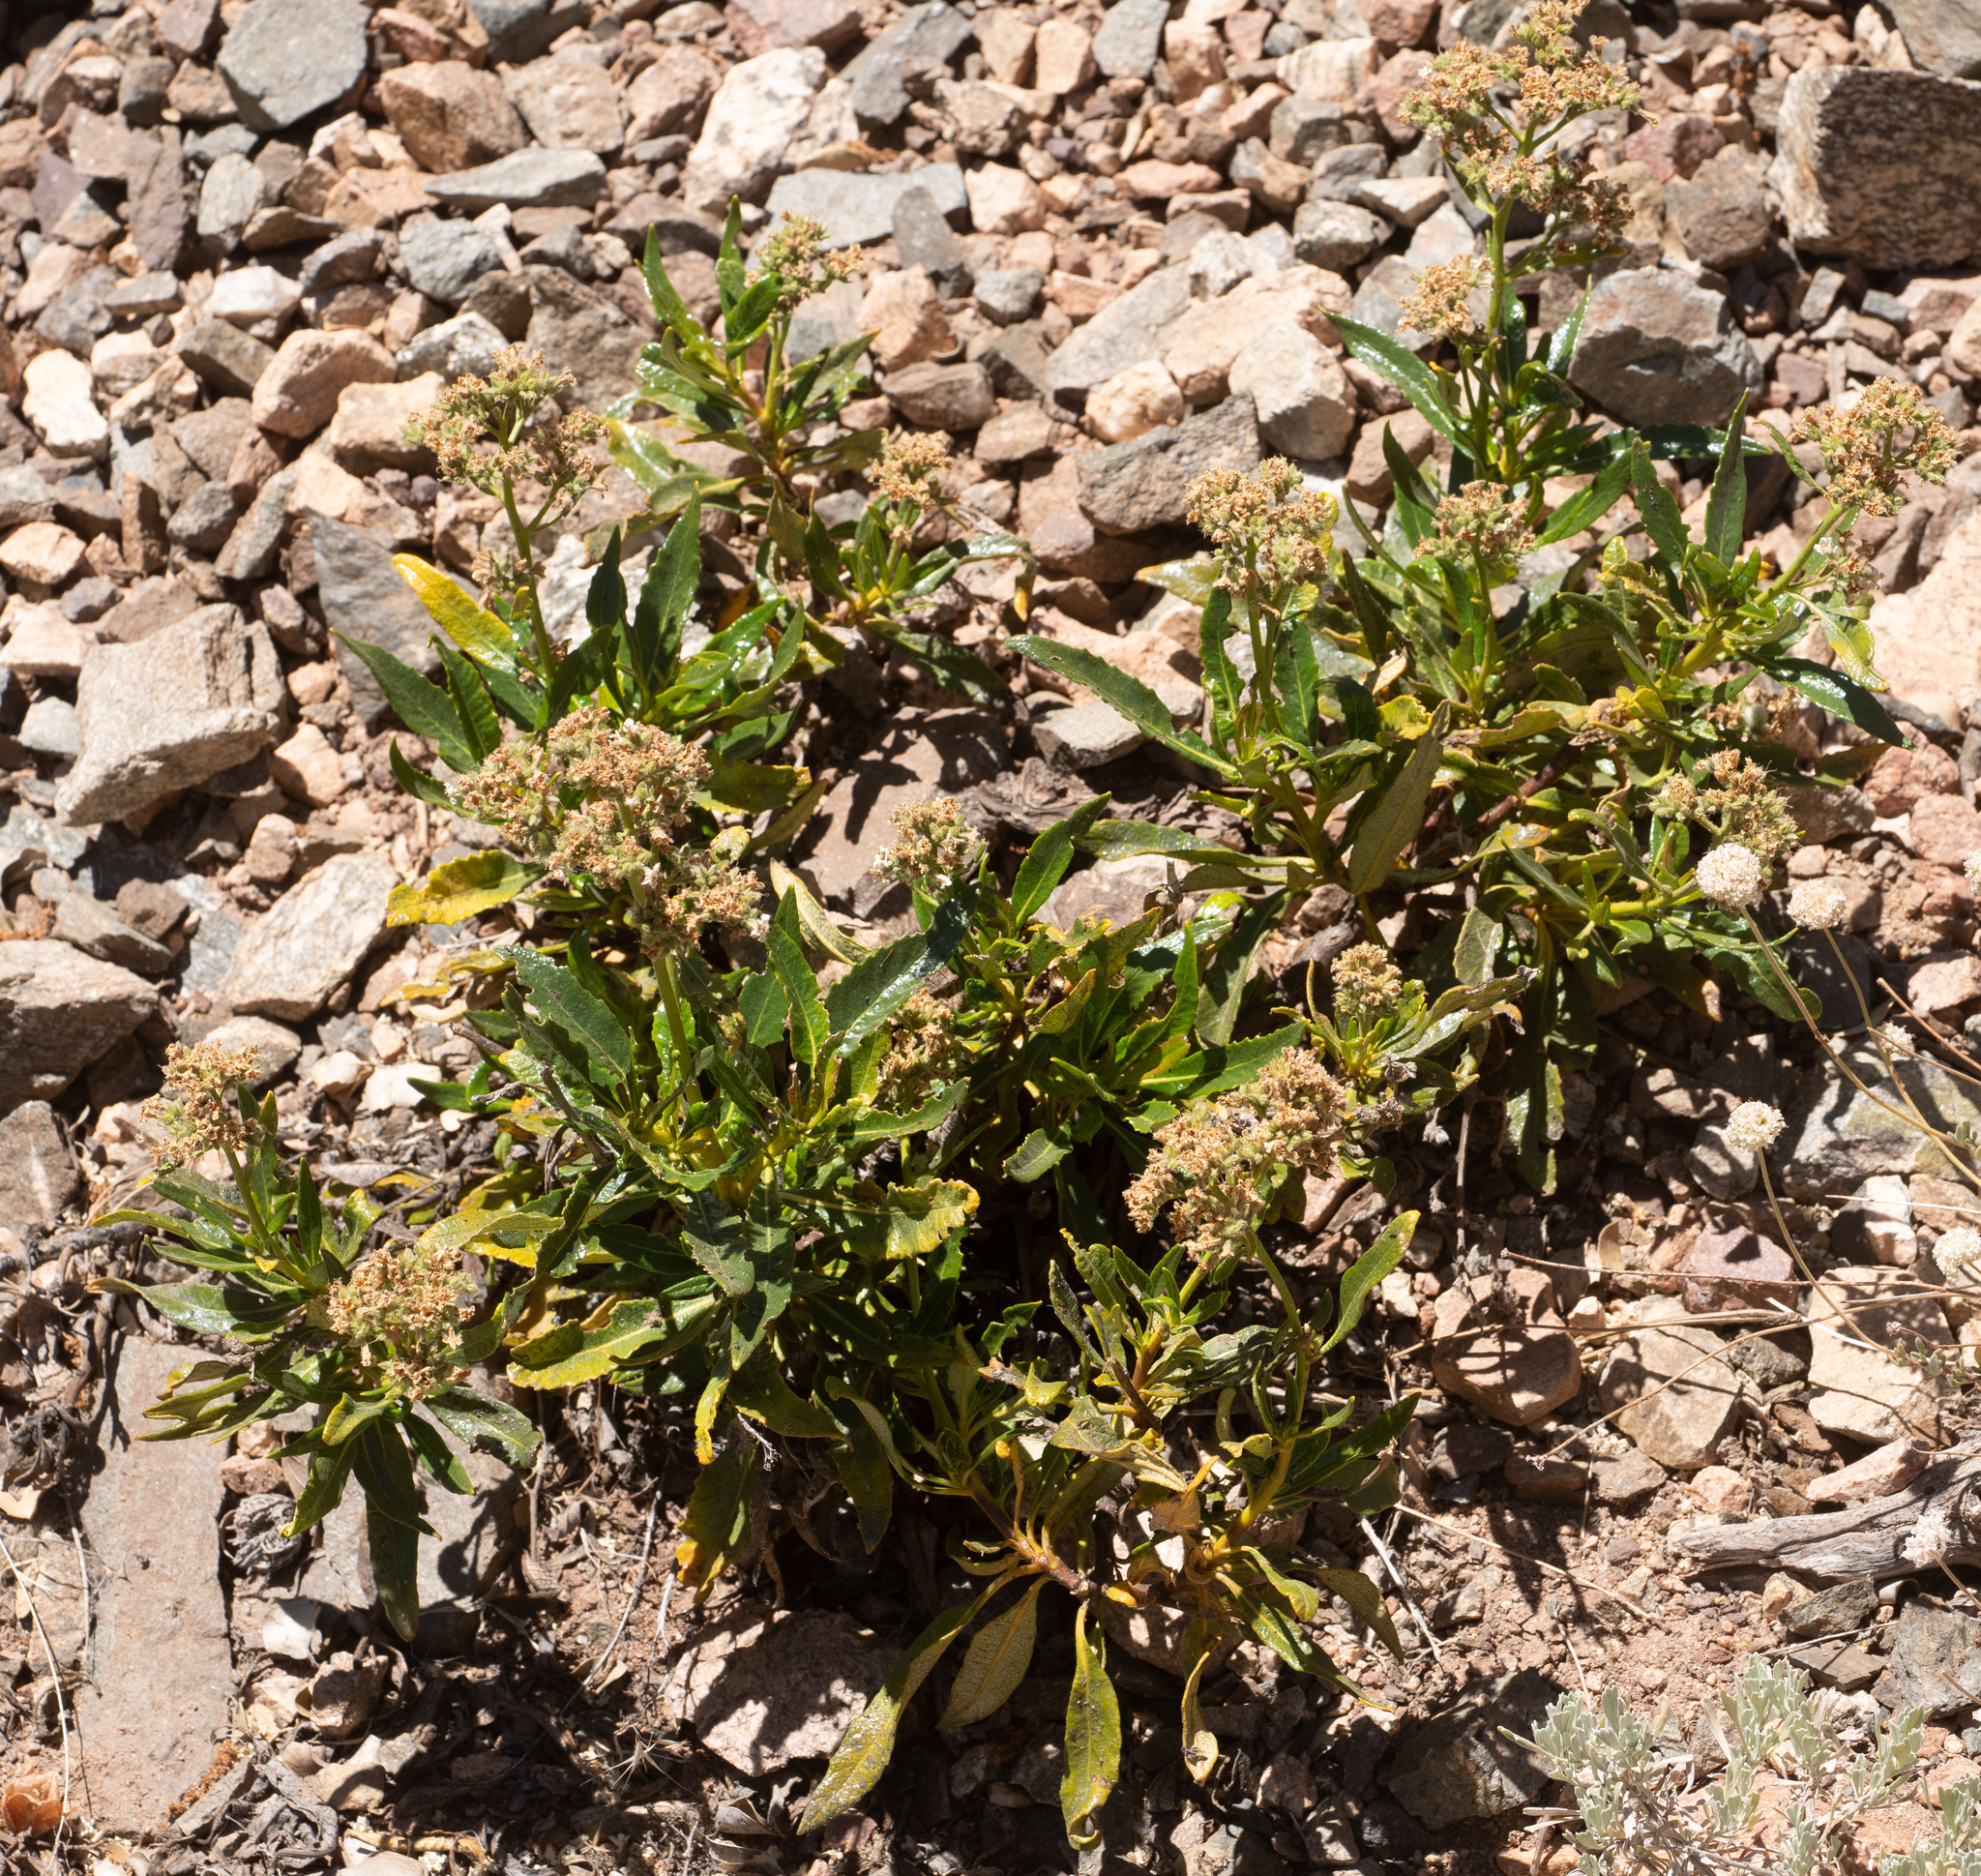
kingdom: Plantae
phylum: Tracheophyta
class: Magnoliopsida
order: Boraginales
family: Namaceae
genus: Eriodictyon
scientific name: Eriodictyon trichocalyx
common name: Hairy yerba-santa
